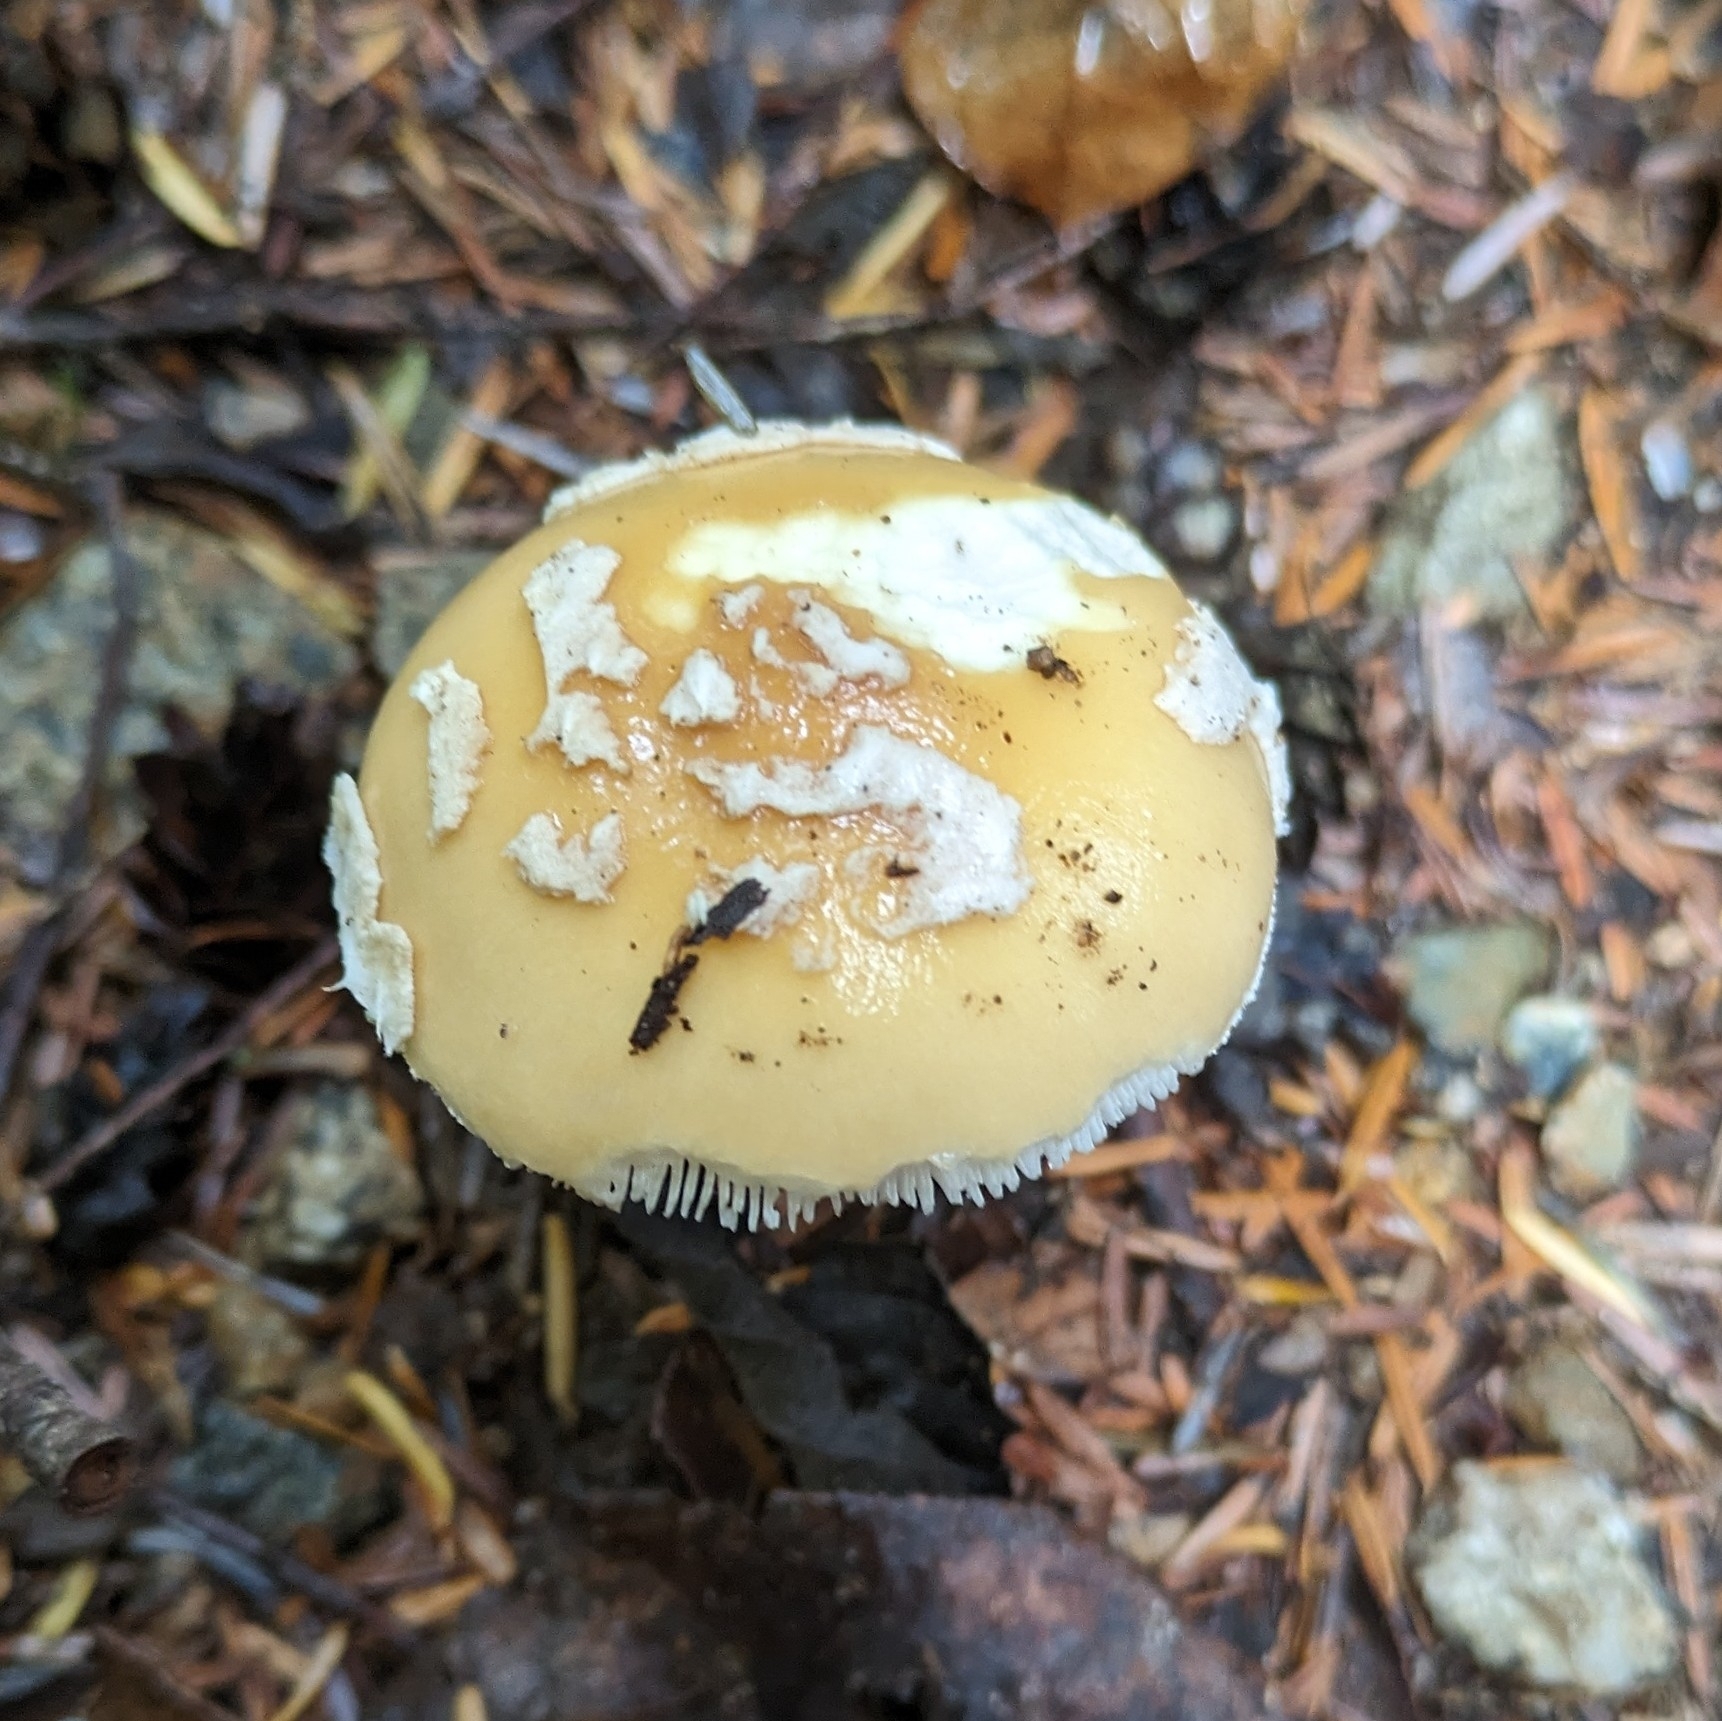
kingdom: Fungi
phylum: Basidiomycota
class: Agaricomycetes
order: Agaricales
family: Amanitaceae
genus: Amanita
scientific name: Amanita pantherinoides
